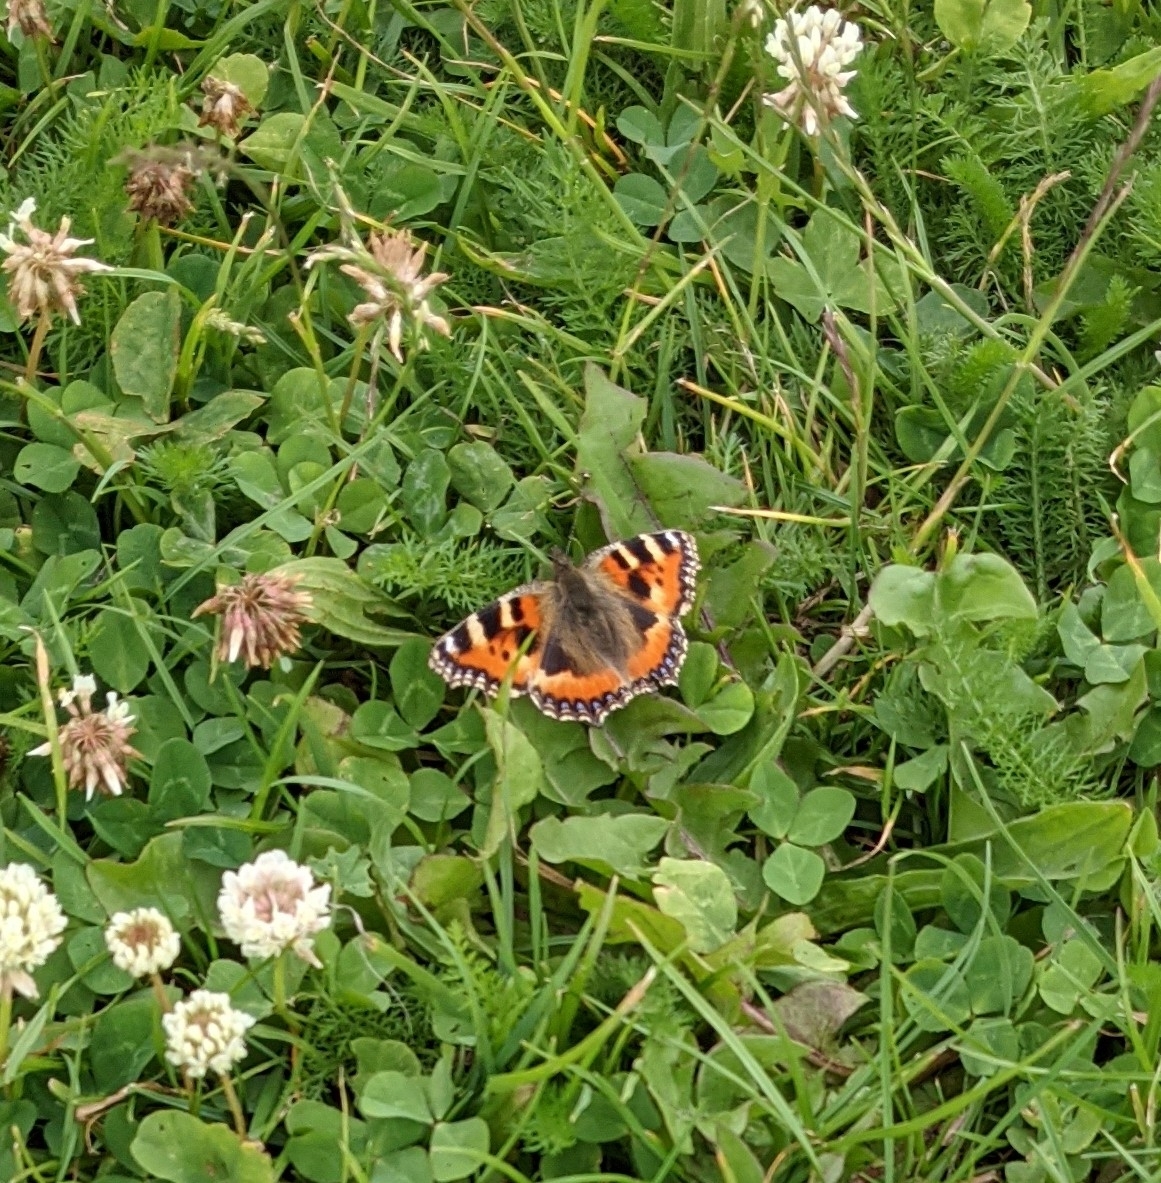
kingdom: Animalia
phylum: Arthropoda
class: Insecta
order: Lepidoptera
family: Nymphalidae
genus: Aglais
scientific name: Aglais urticae
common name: Small tortoiseshell
